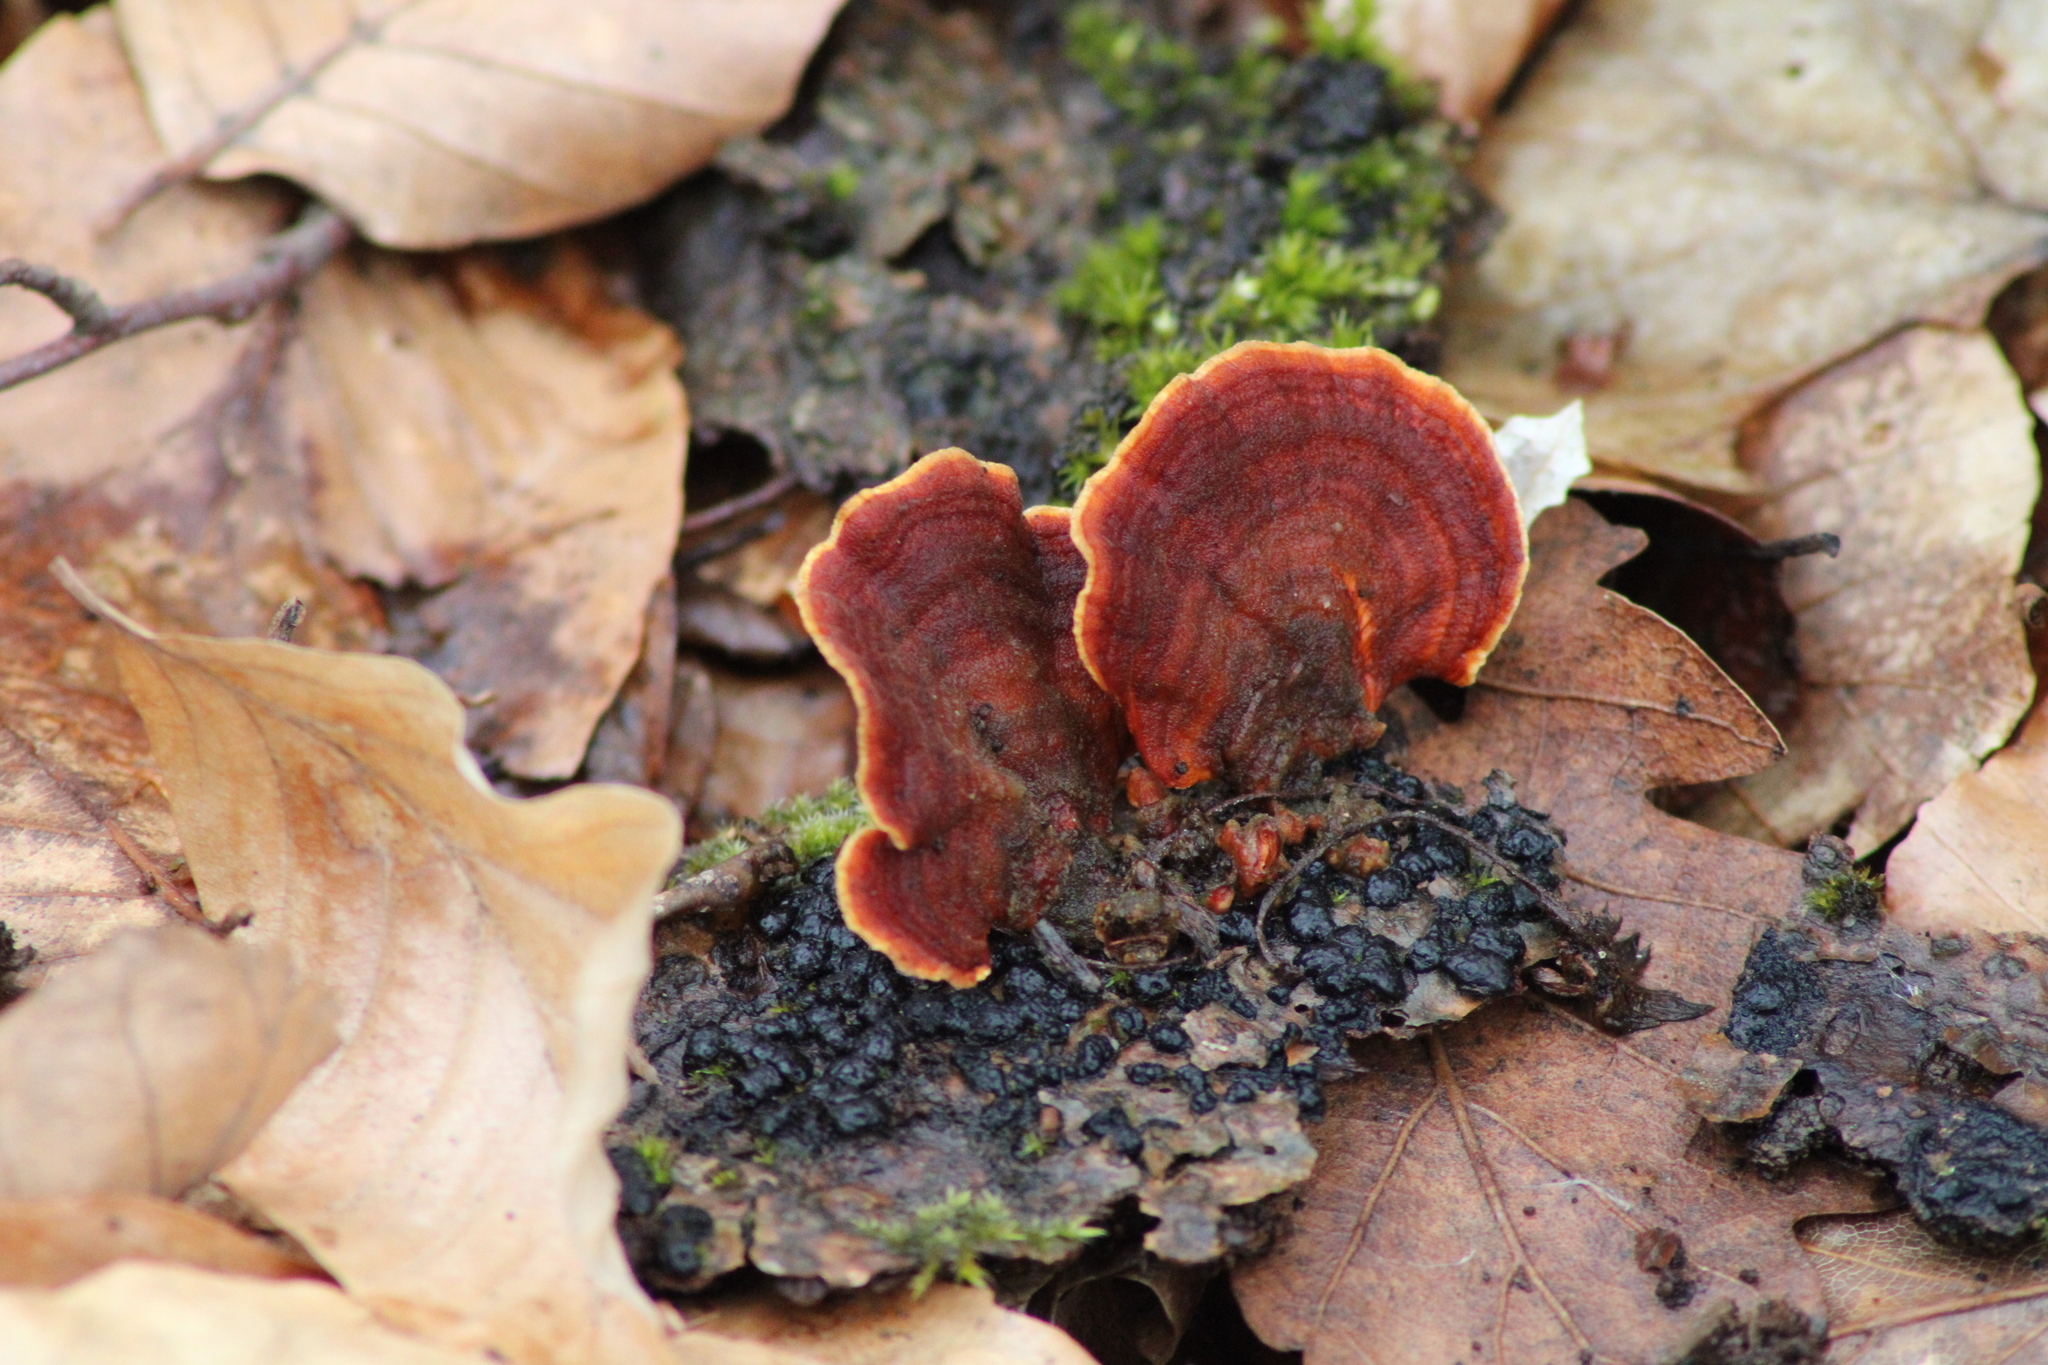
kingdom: Fungi
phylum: Basidiomycota
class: Agaricomycetes
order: Russulales
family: Stereaceae
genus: Stereum
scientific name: Stereum insignitum
